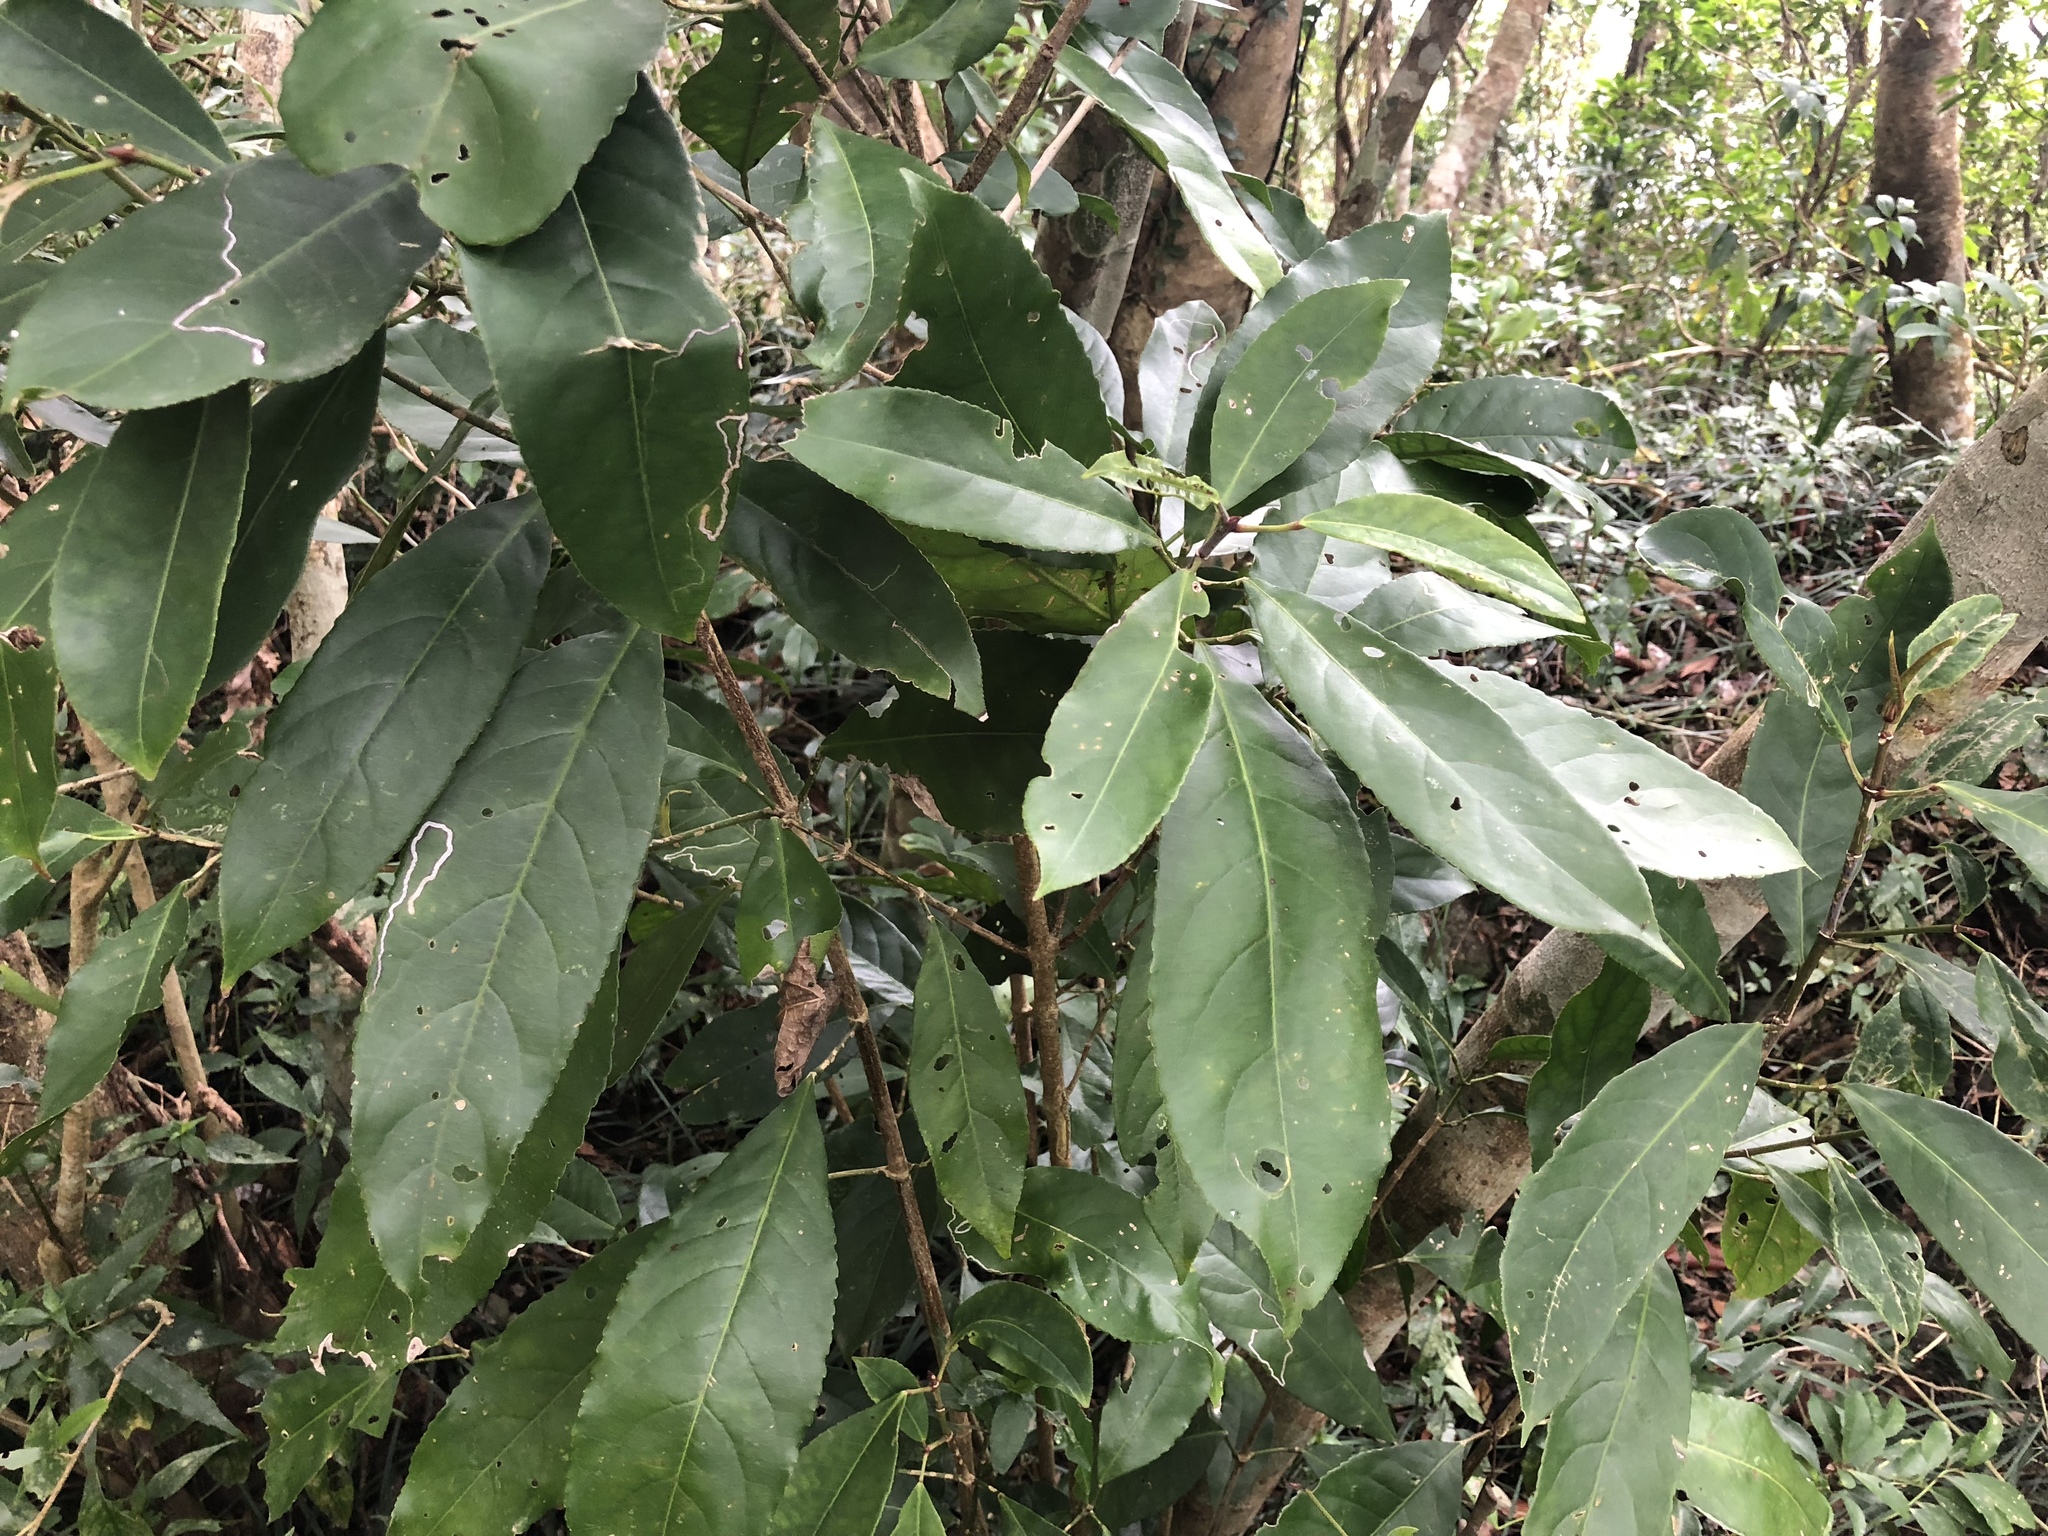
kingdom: Plantae
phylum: Tracheophyta
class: Magnoliopsida
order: Crossosomatales
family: Staphyleaceae
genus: Turpinia
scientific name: Turpinia formosana
